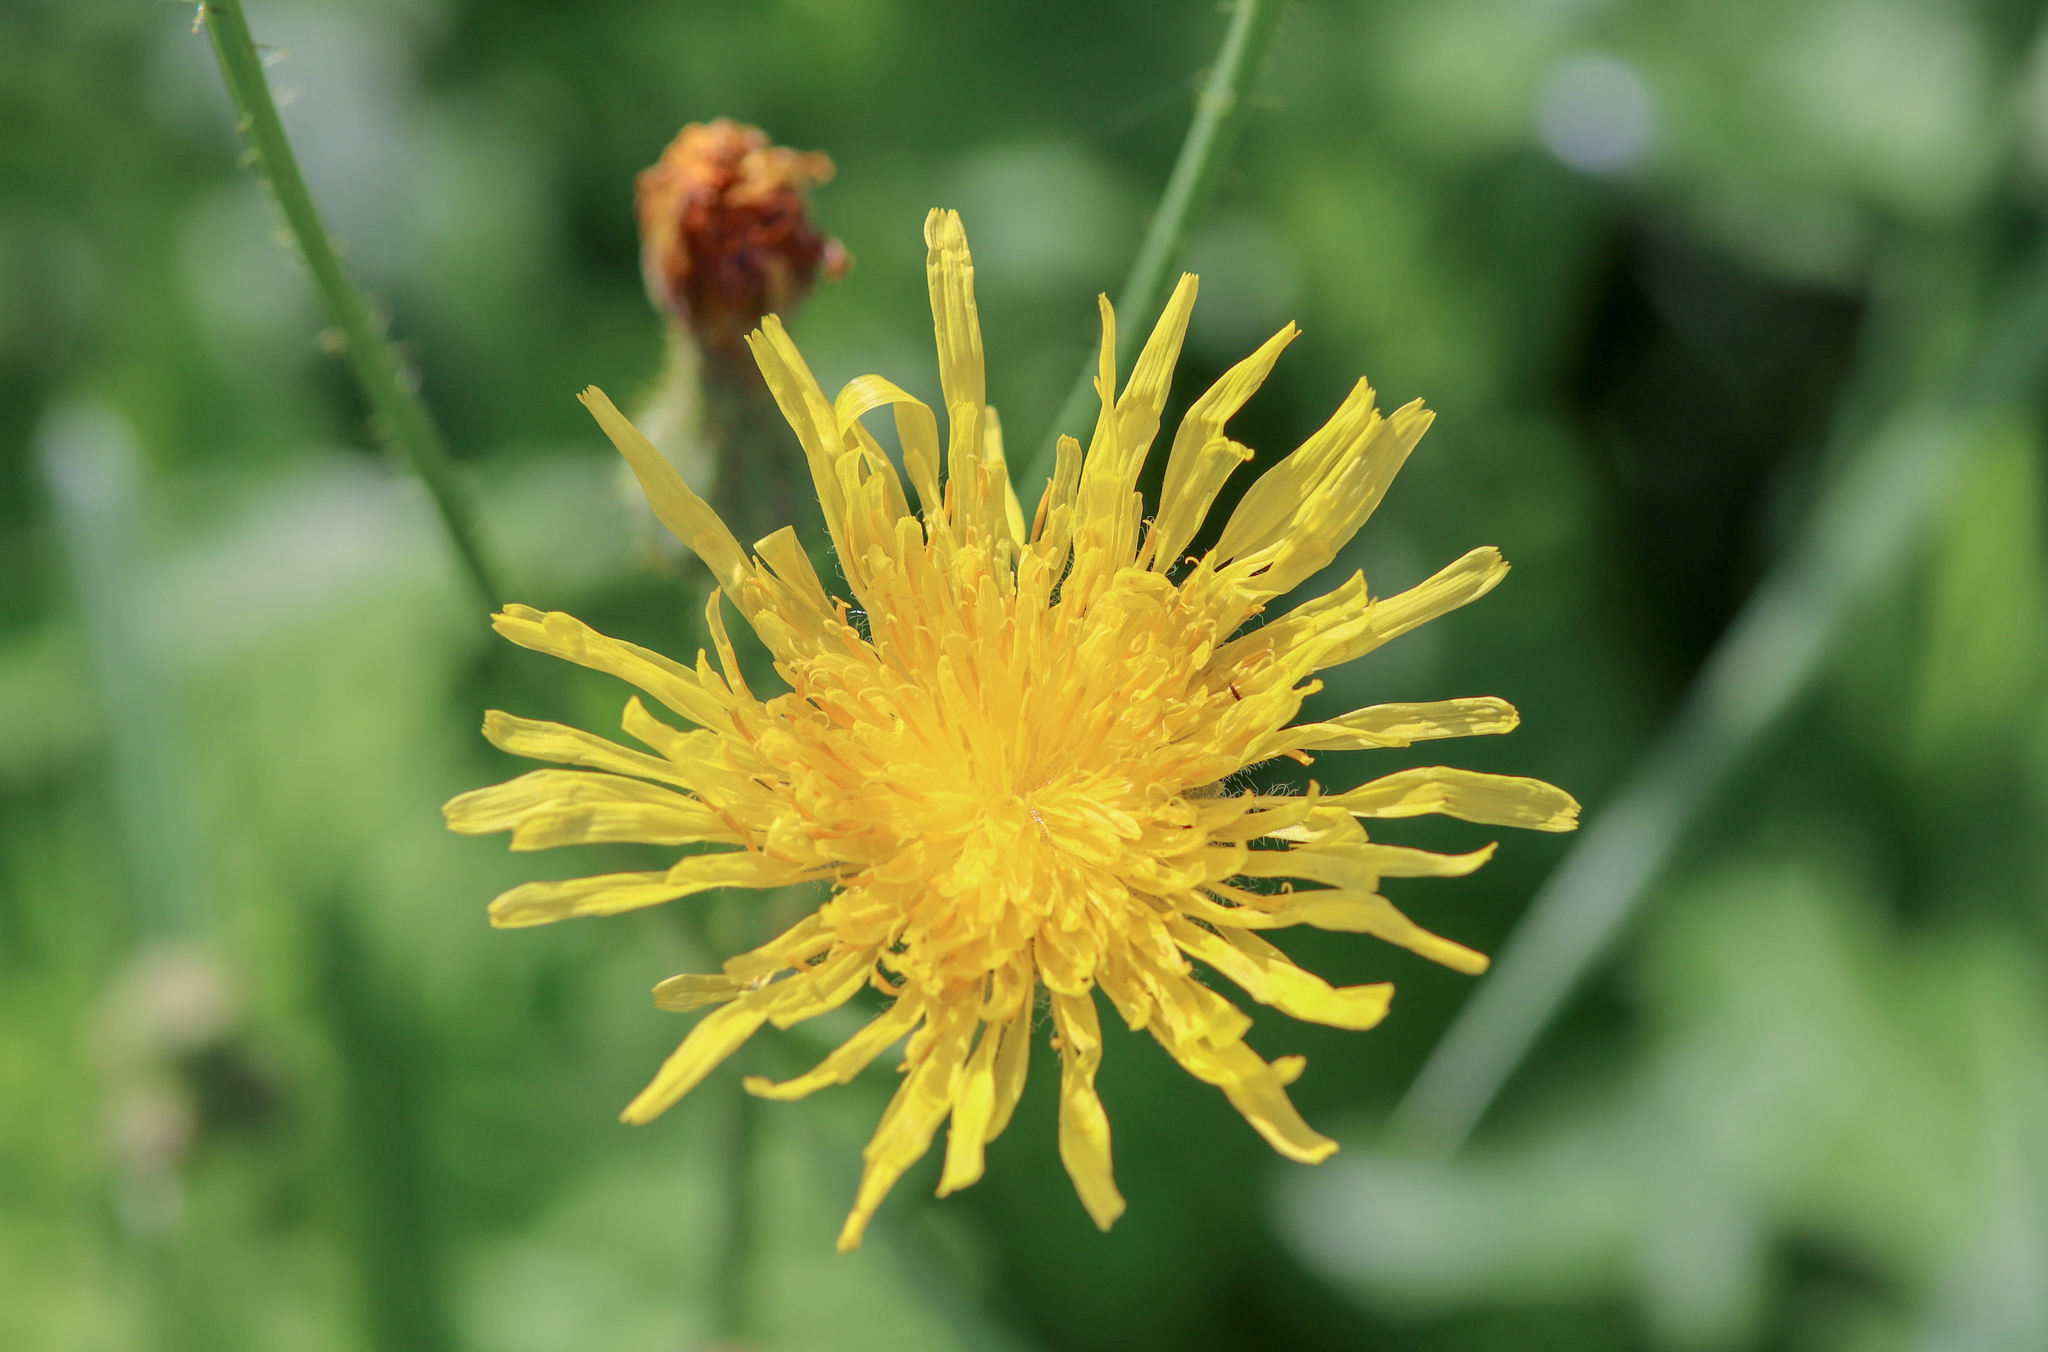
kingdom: Plantae
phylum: Tracheophyta
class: Magnoliopsida
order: Asterales
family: Asteraceae
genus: Sonchus
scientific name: Sonchus arvensis
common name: Perennial sow-thistle
